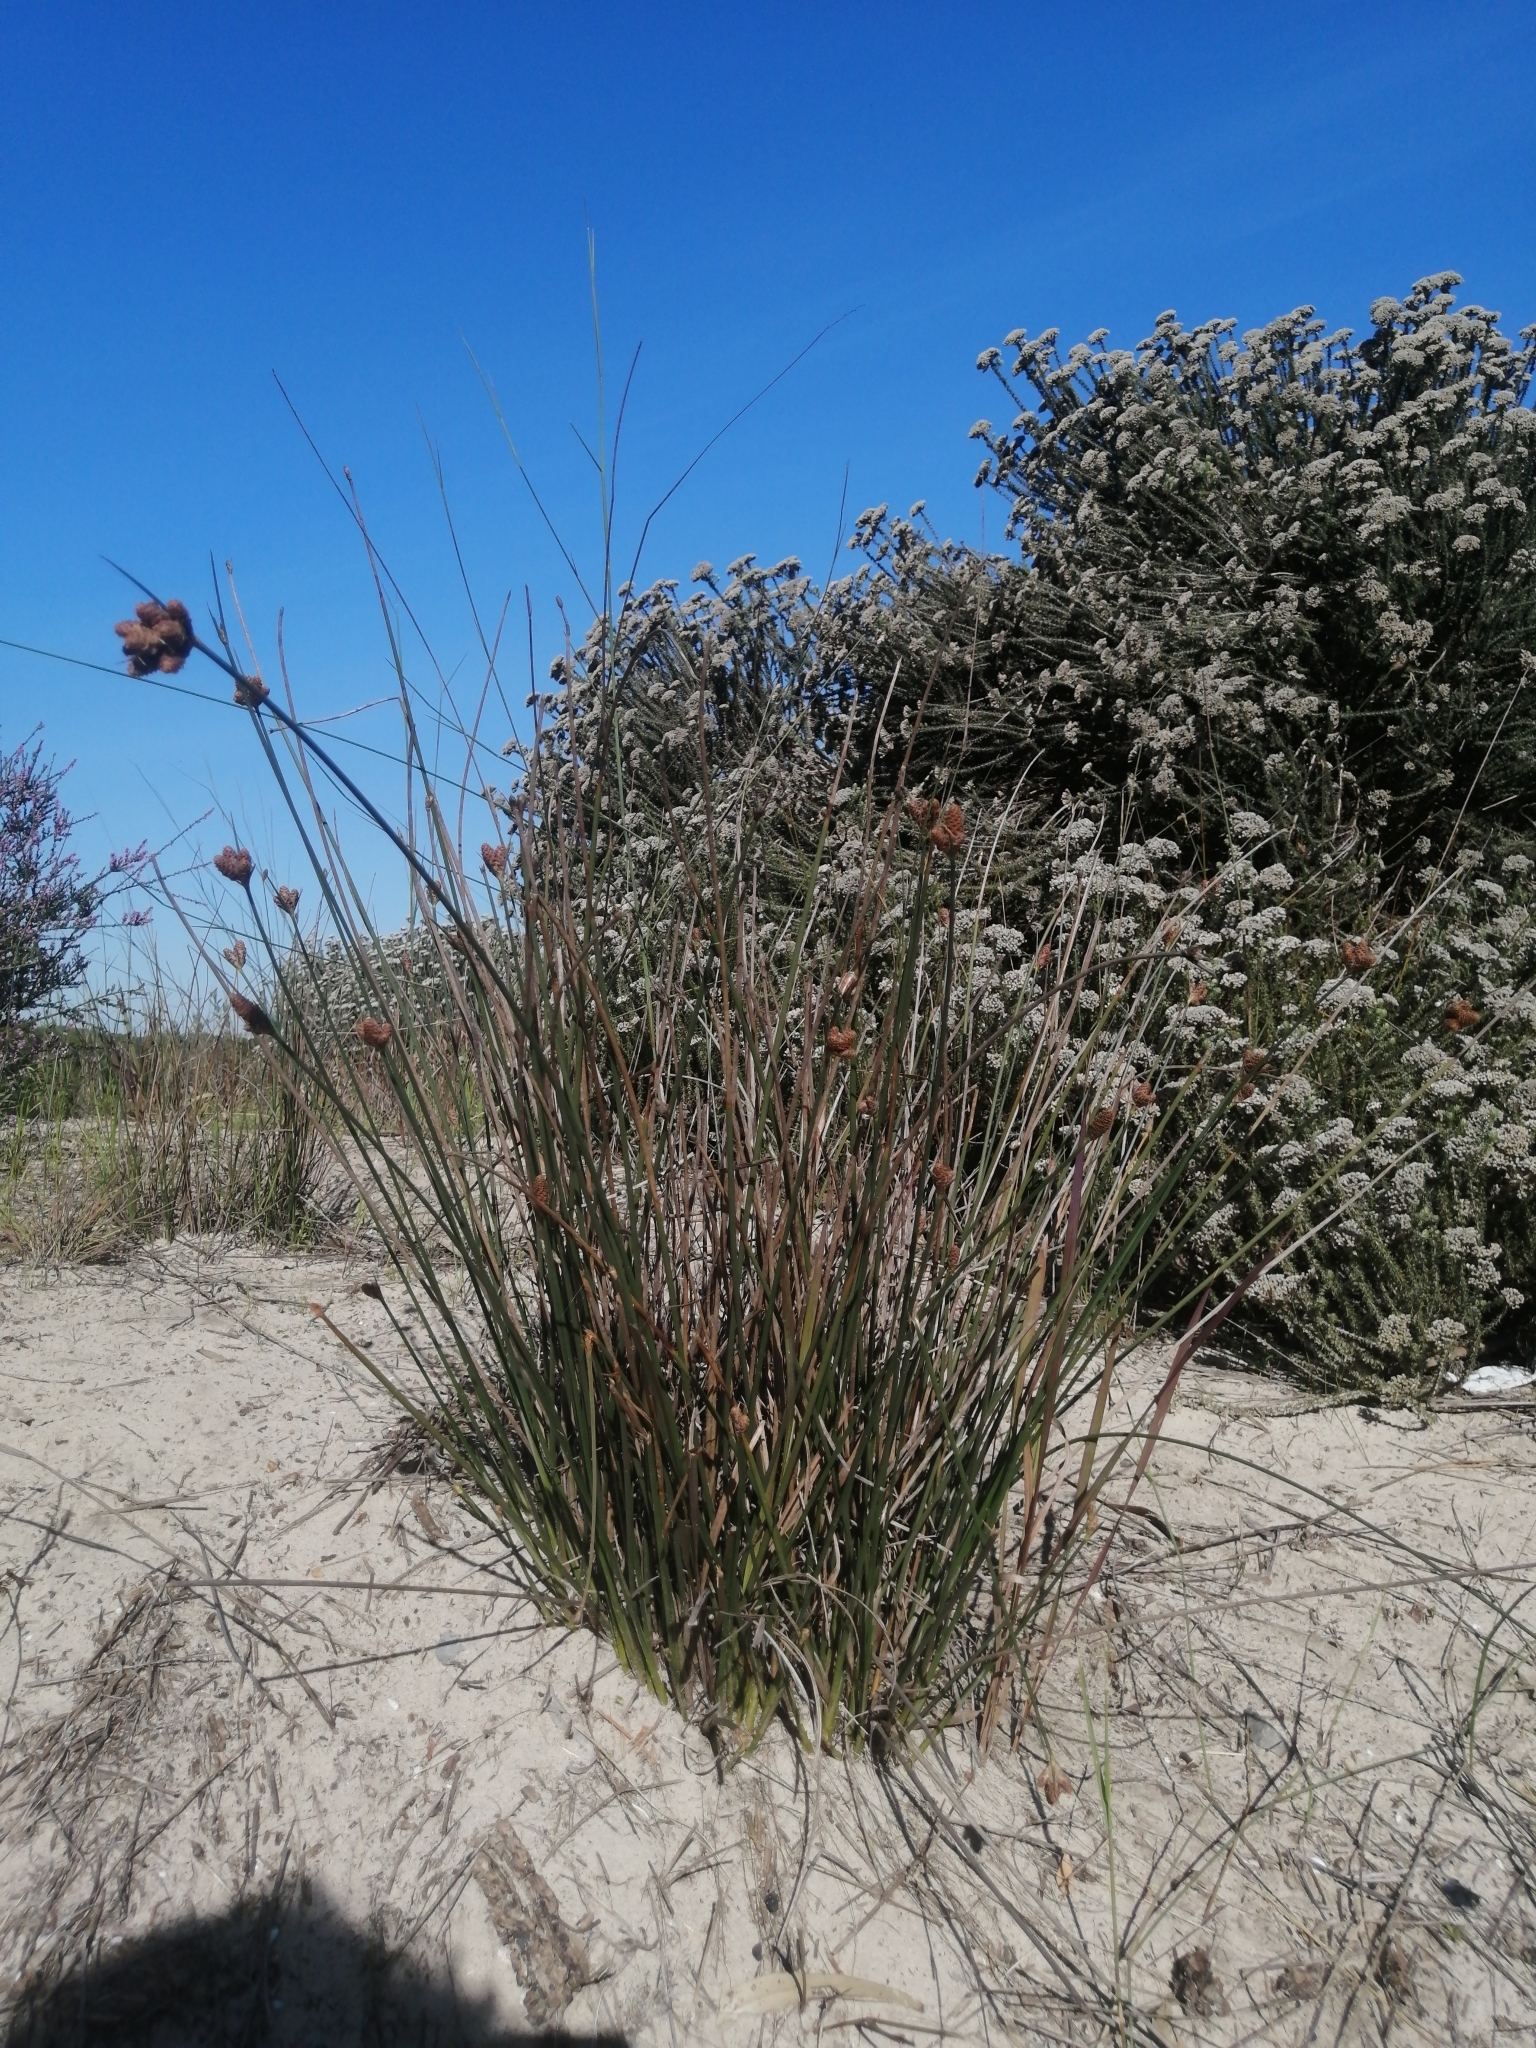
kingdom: Plantae
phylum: Tracheophyta
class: Liliopsida
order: Poales
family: Cyperaceae
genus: Hellmuthia
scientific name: Hellmuthia membranacea
